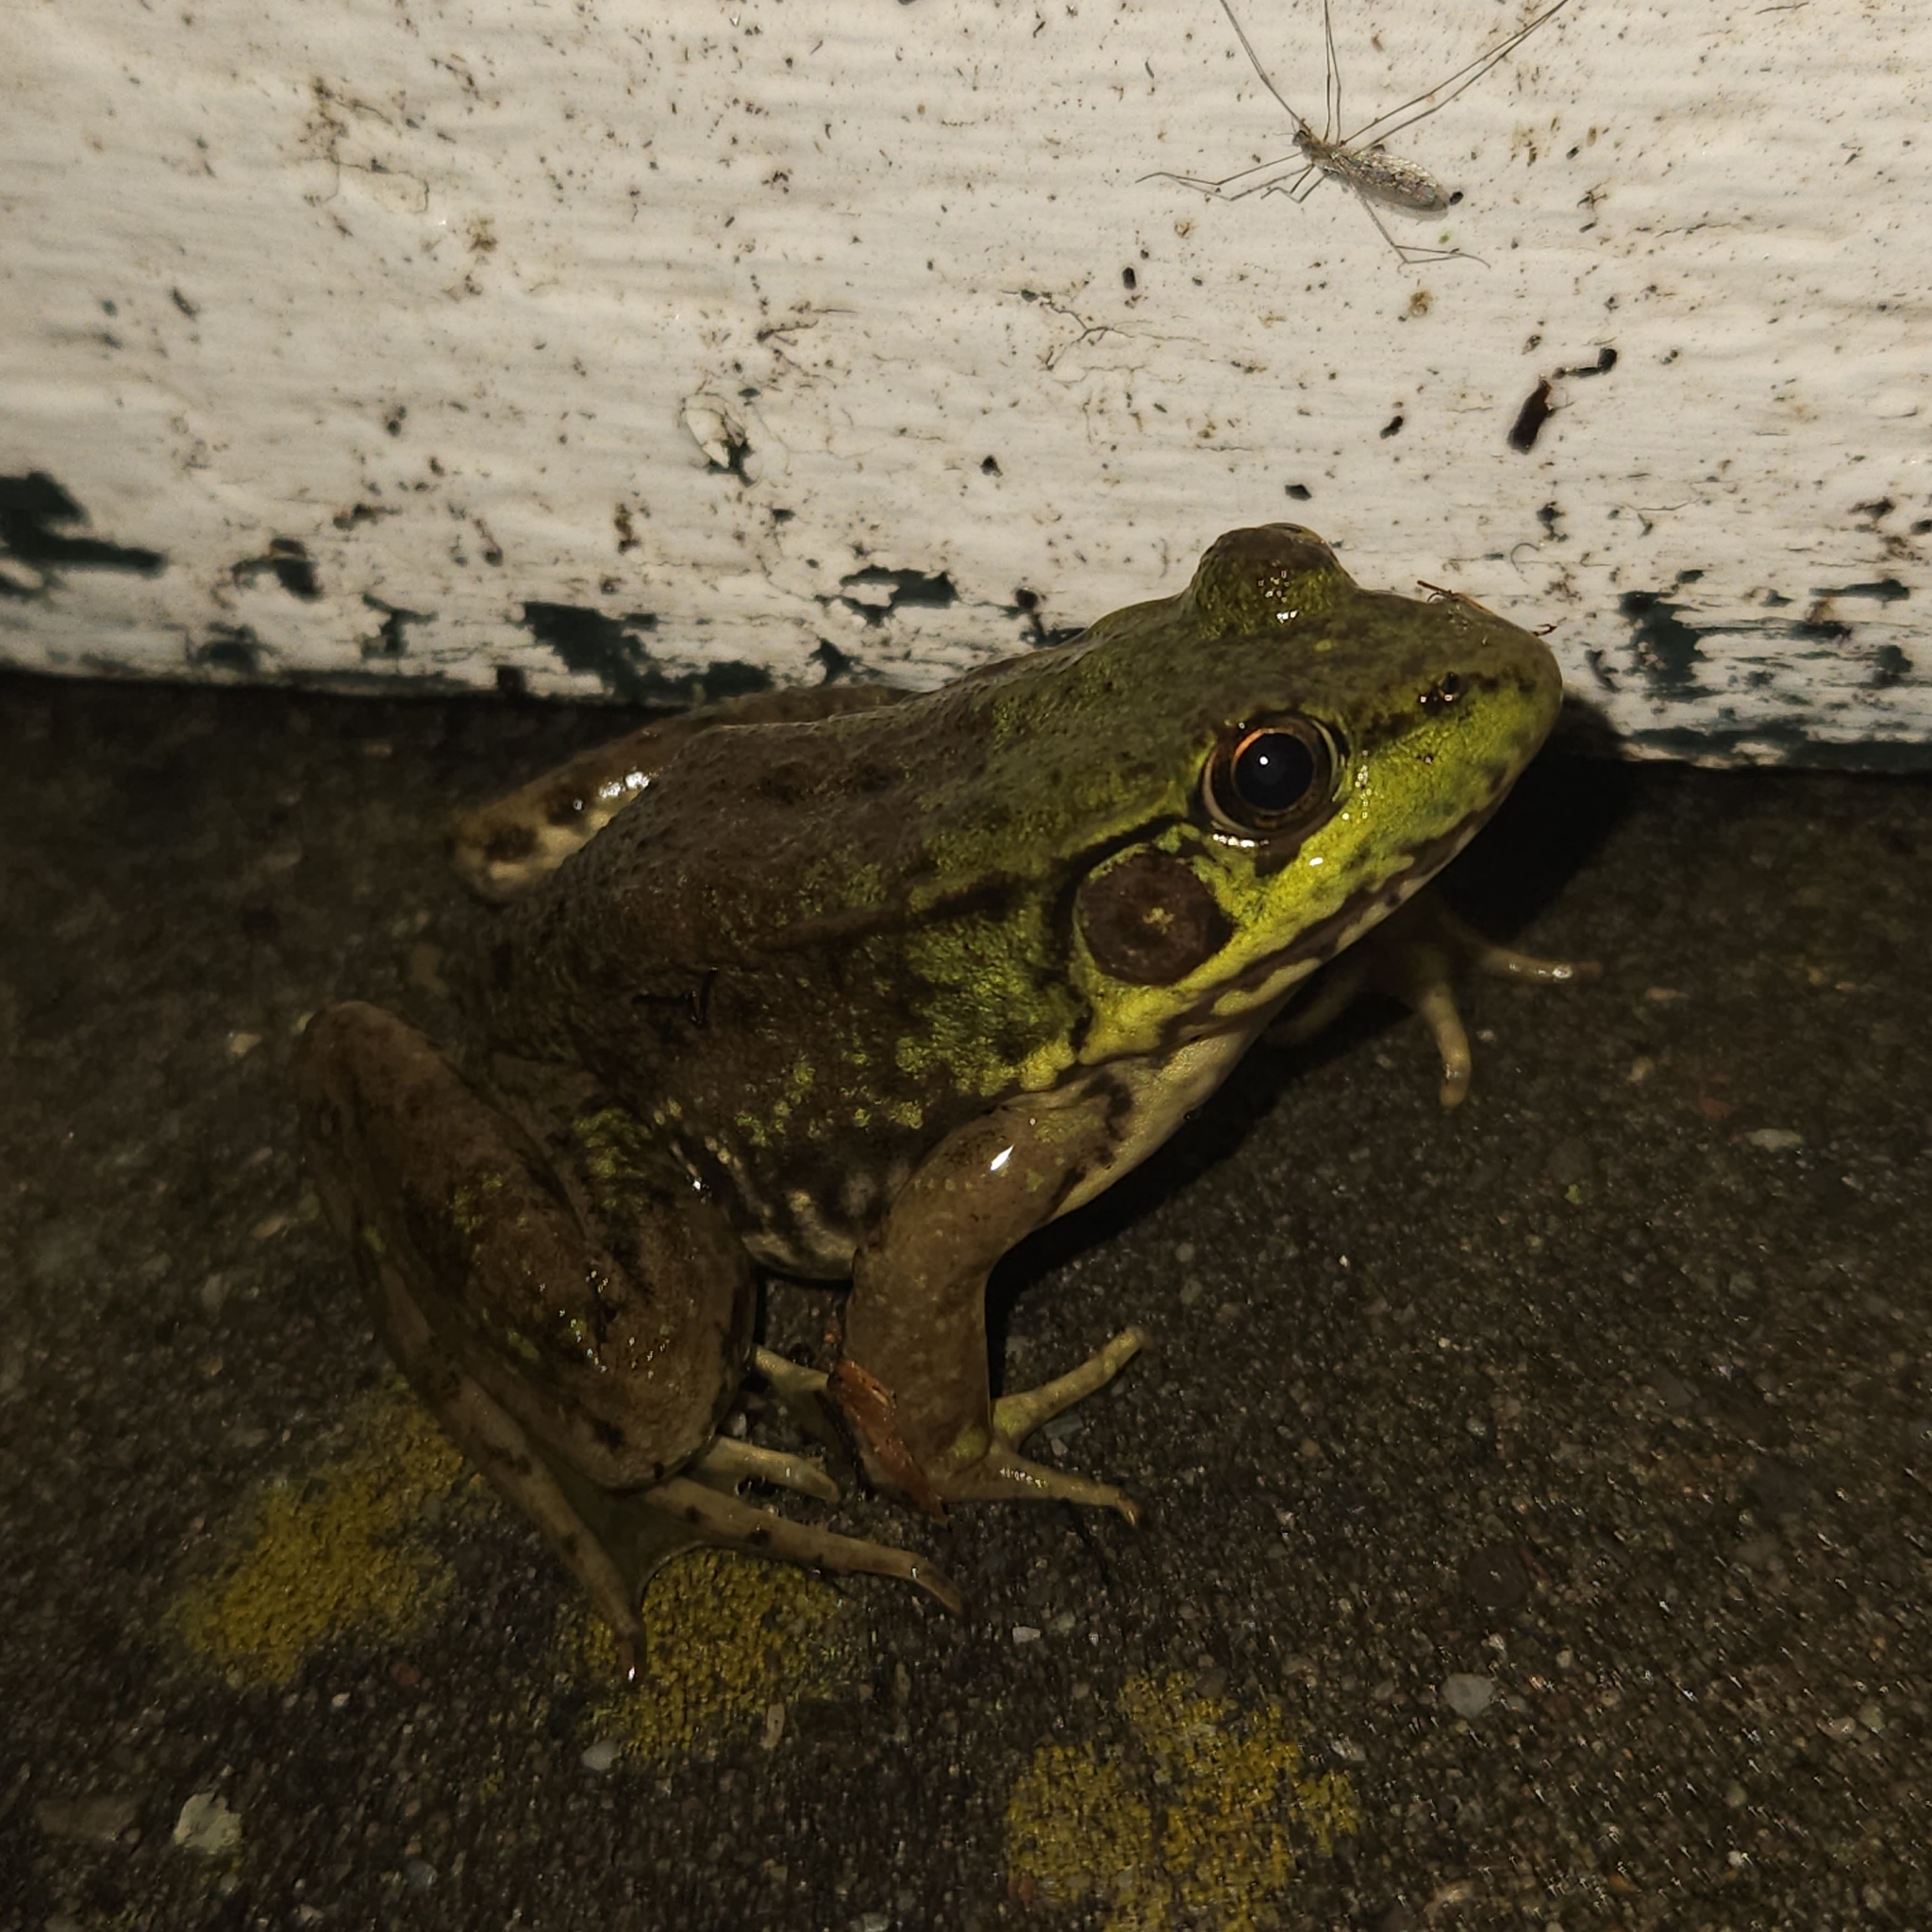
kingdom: Animalia
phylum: Chordata
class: Amphibia
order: Anura
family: Ranidae
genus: Lithobates
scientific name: Lithobates clamitans
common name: Green frog
